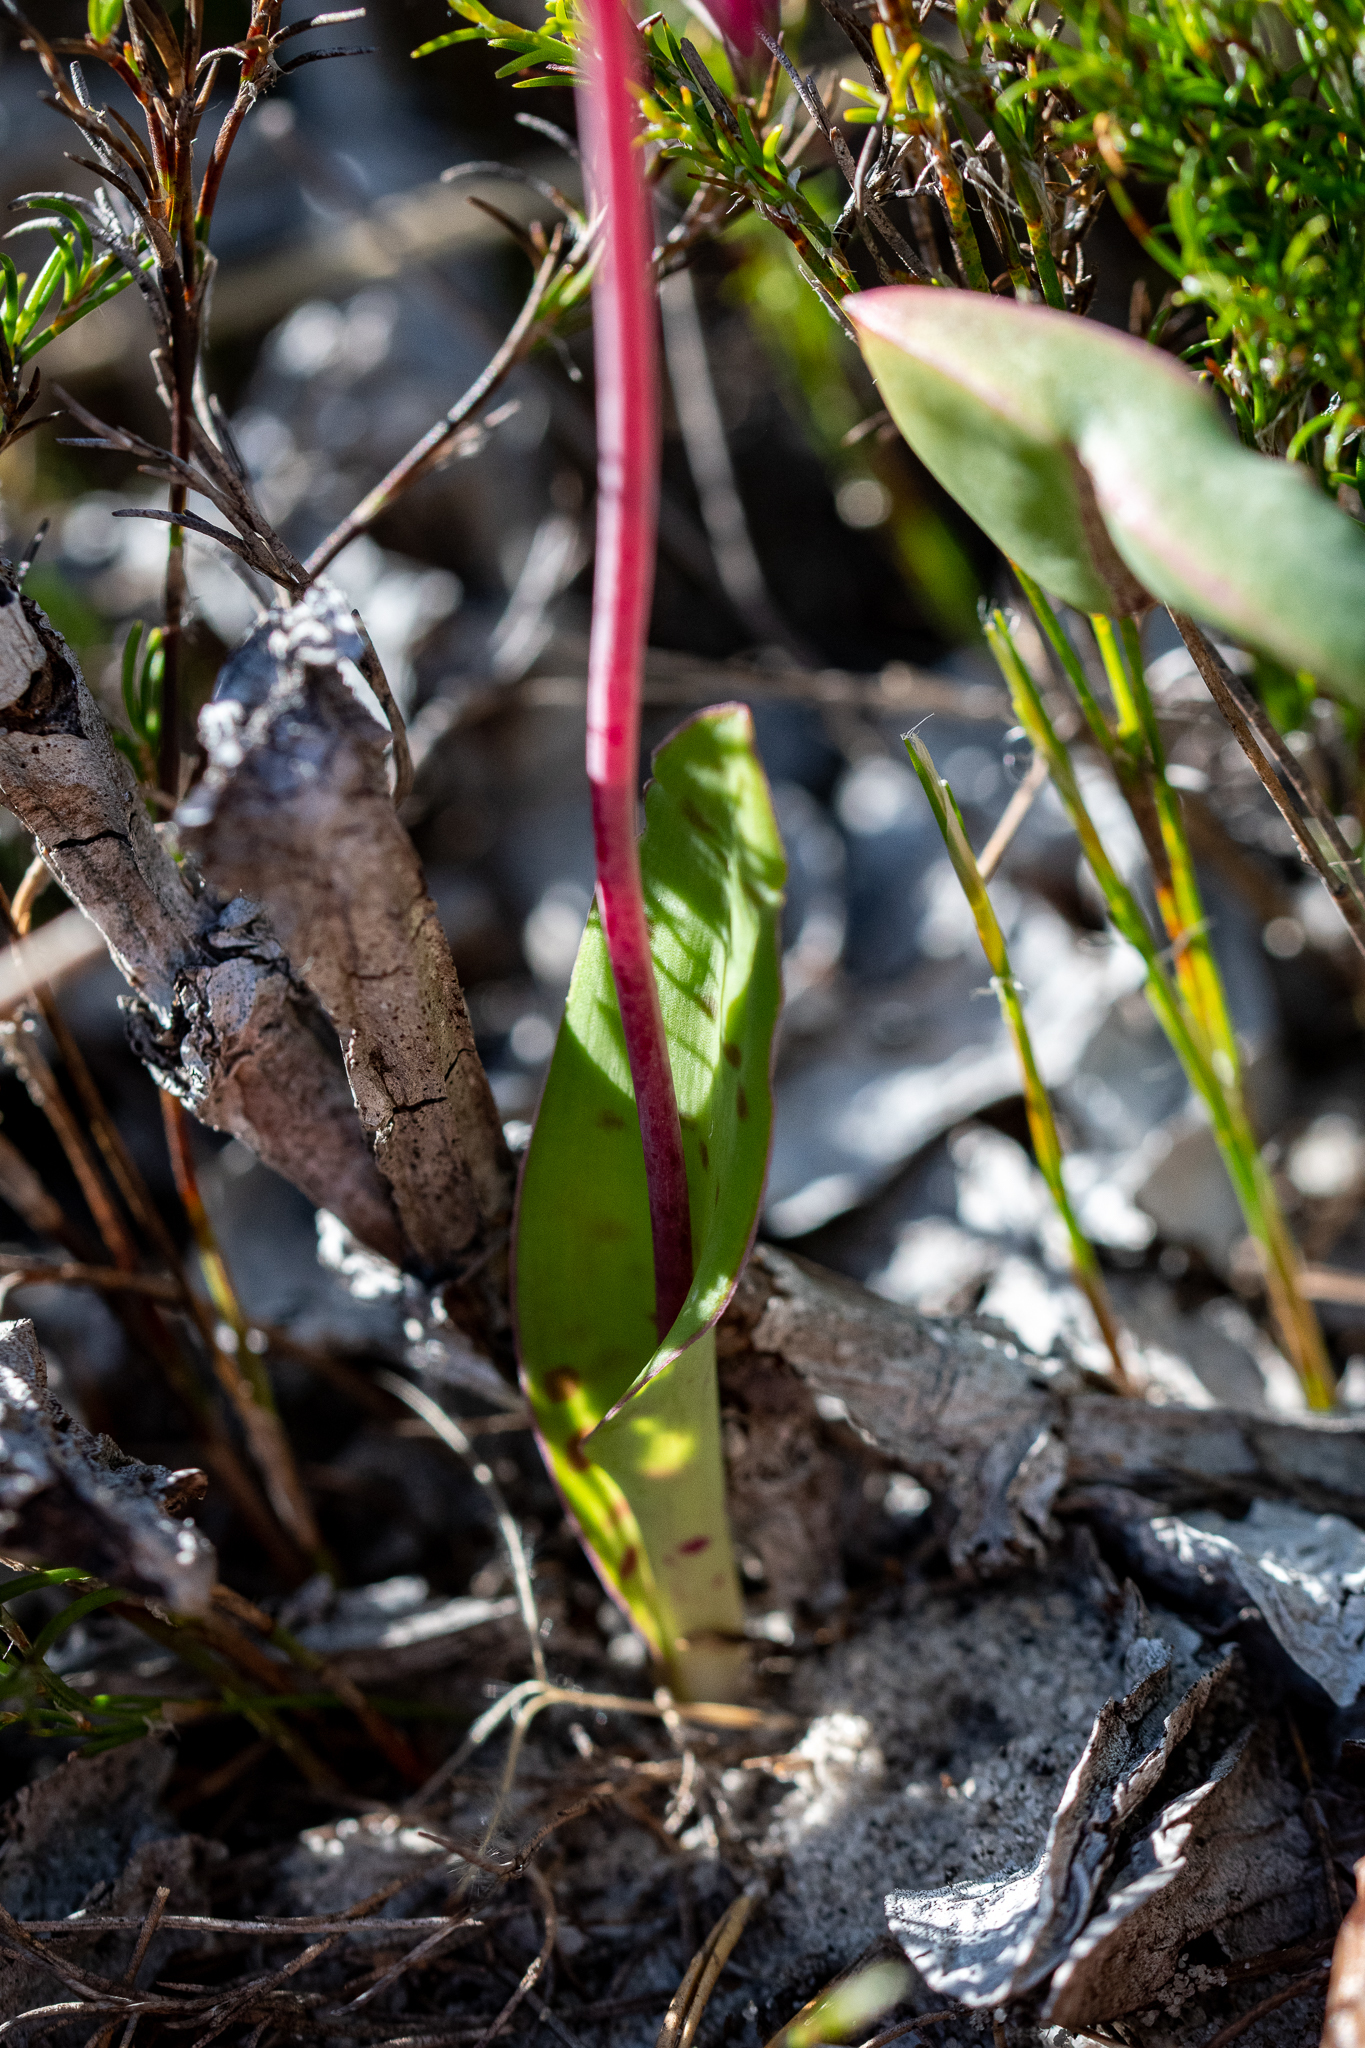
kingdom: Plantae
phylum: Tracheophyta
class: Liliopsida
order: Asparagales
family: Asparagaceae
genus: Lachenalia
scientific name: Lachenalia punctata
